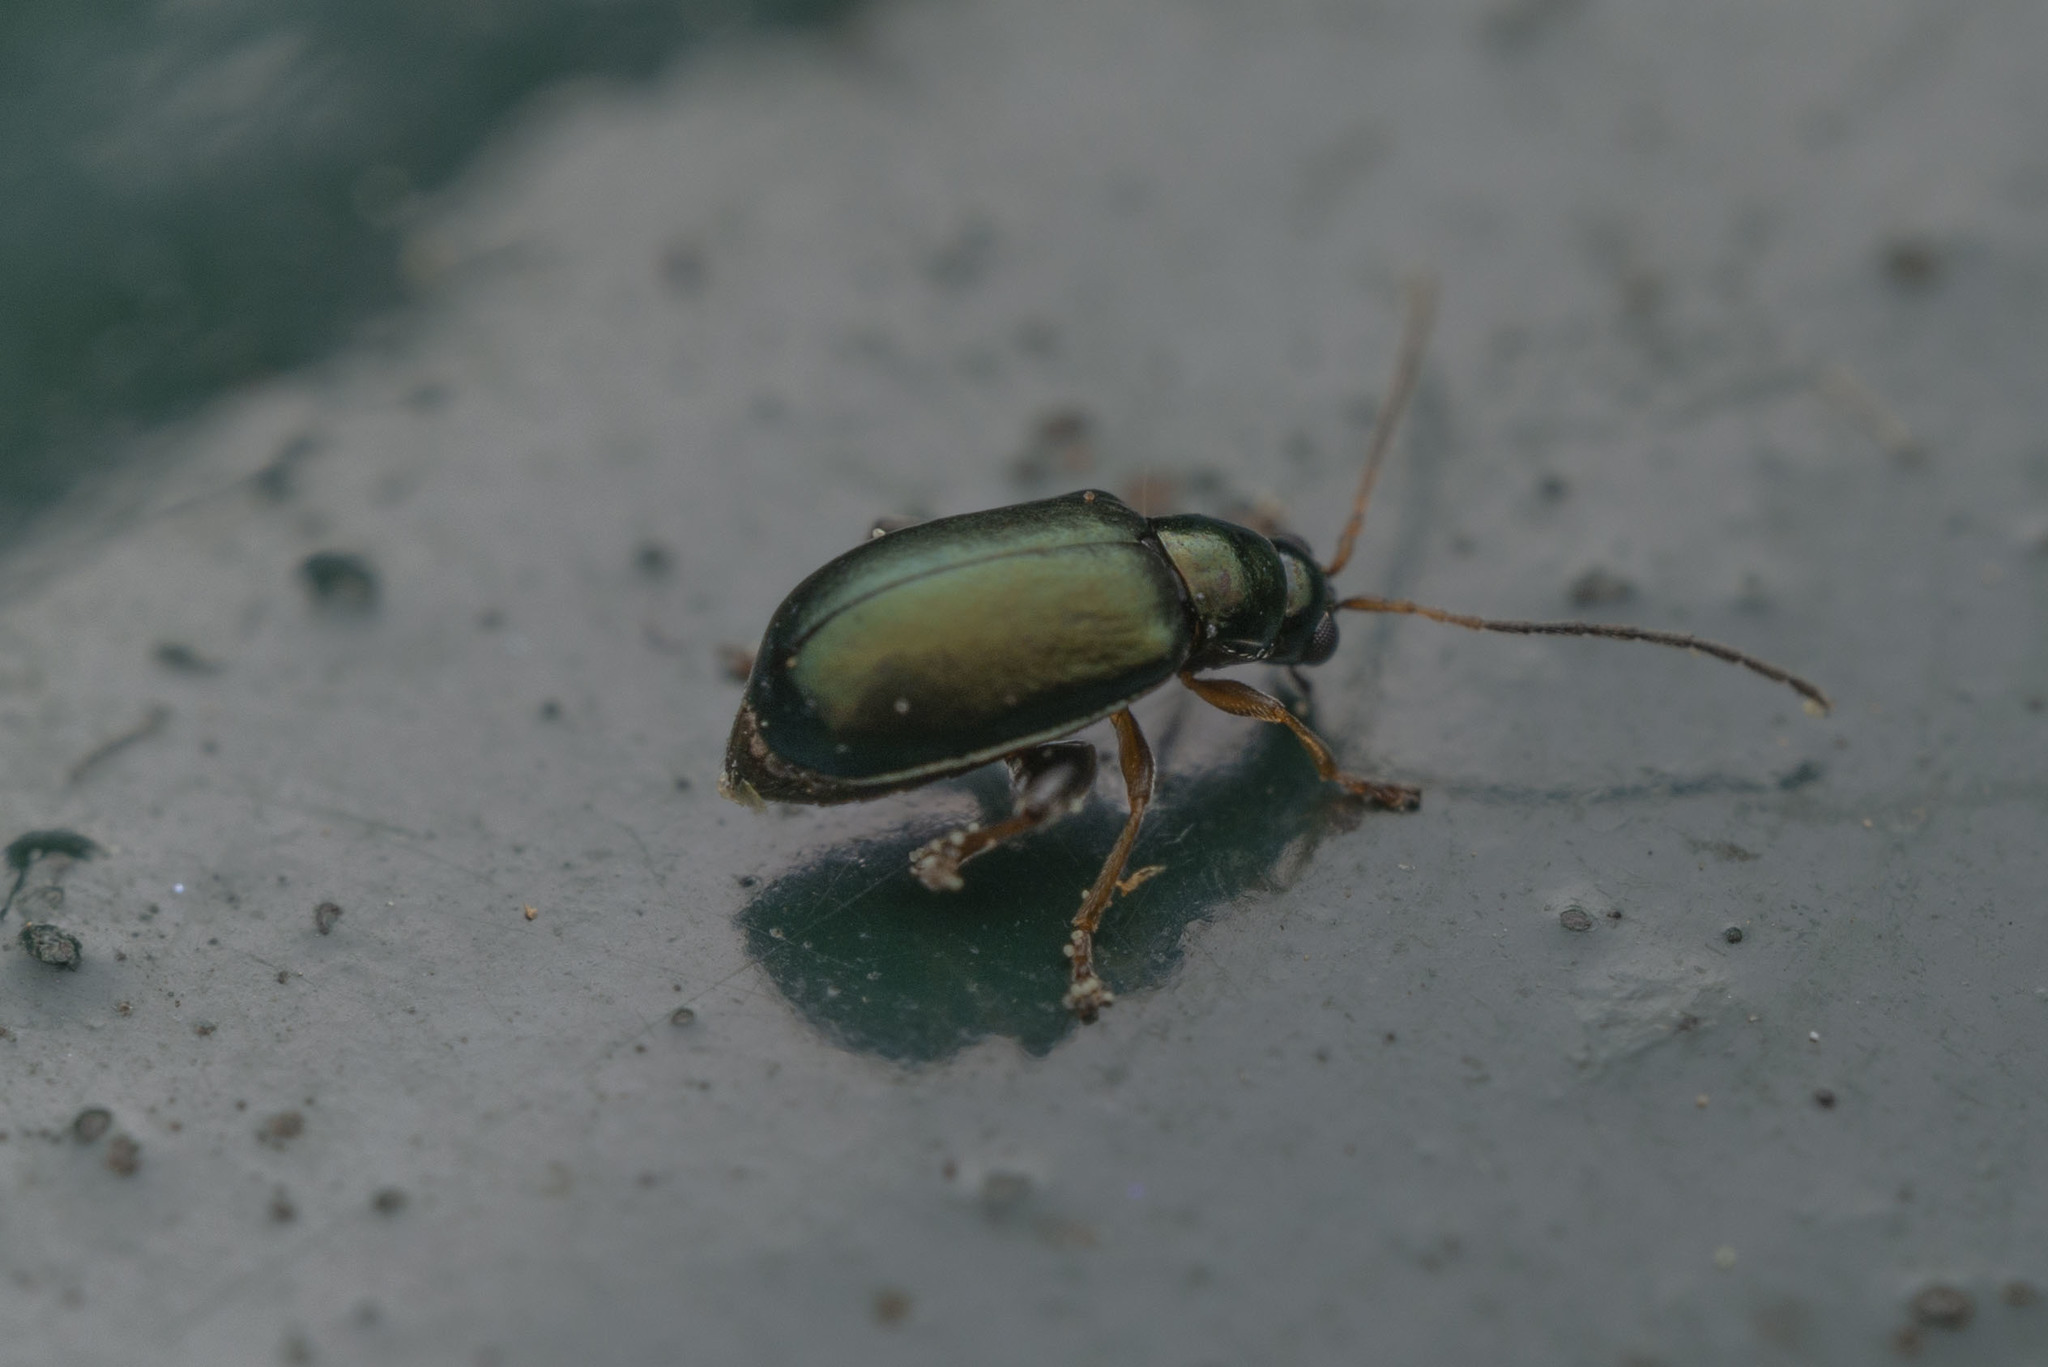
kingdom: Animalia
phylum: Arthropoda
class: Insecta
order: Coleoptera
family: Chrysomelidae
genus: Aphthona
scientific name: Aphthona strigosa
